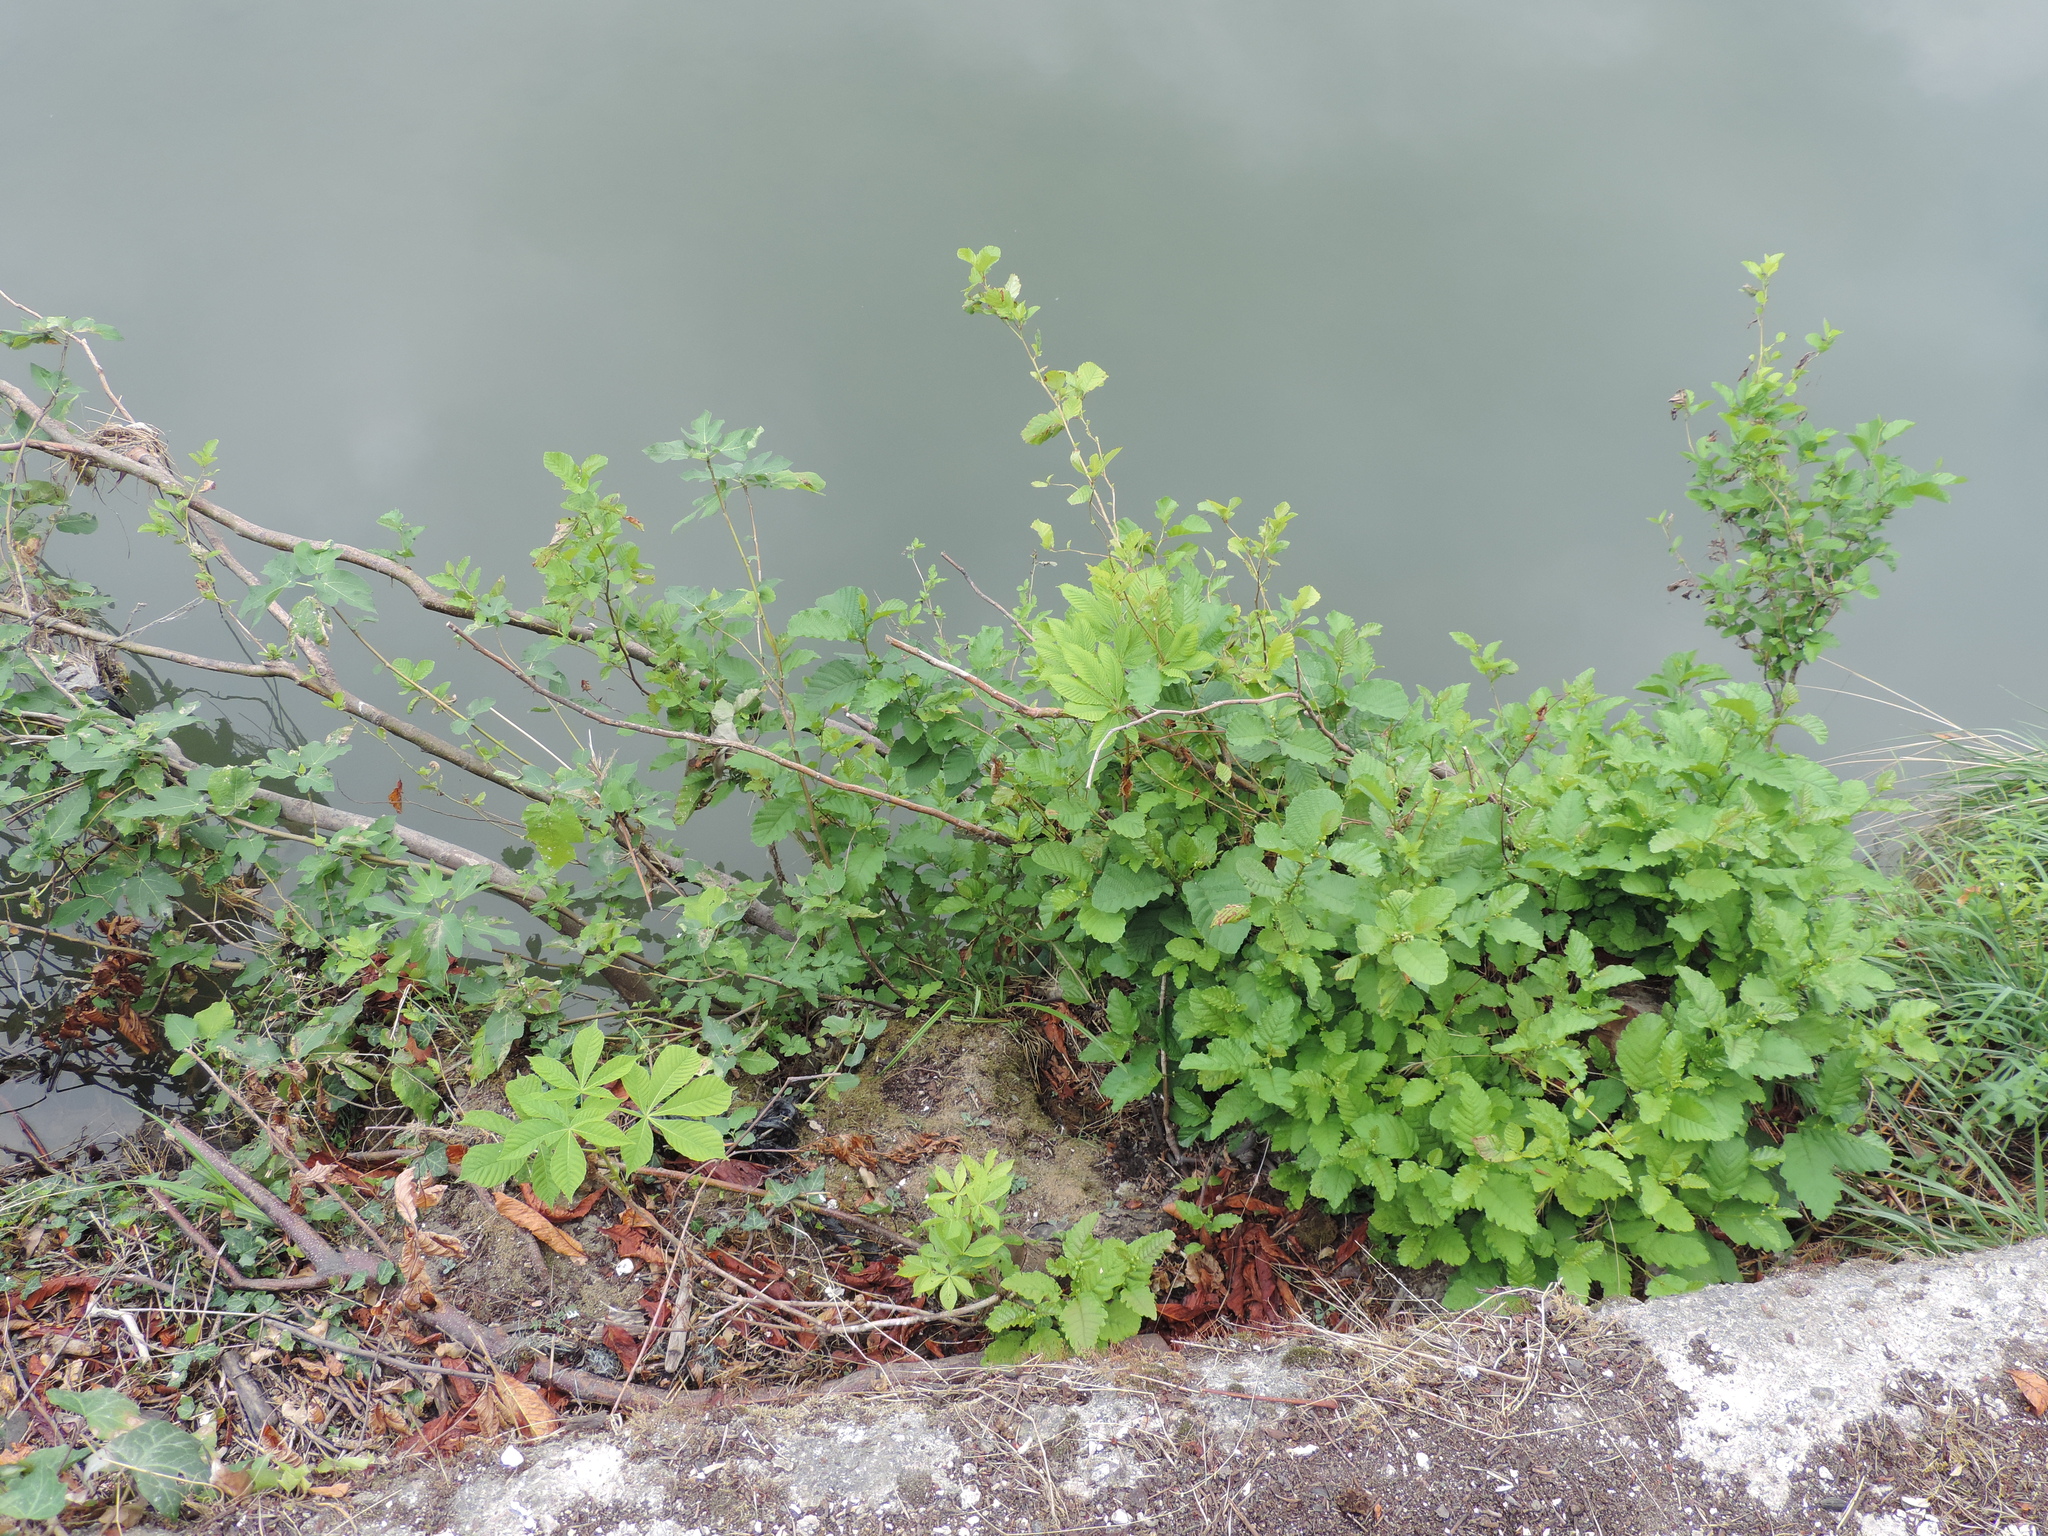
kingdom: Plantae
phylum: Tracheophyta
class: Magnoliopsida
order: Sapindales
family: Sapindaceae
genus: Aesculus
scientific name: Aesculus hippocastanum
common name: Horse-chestnut
